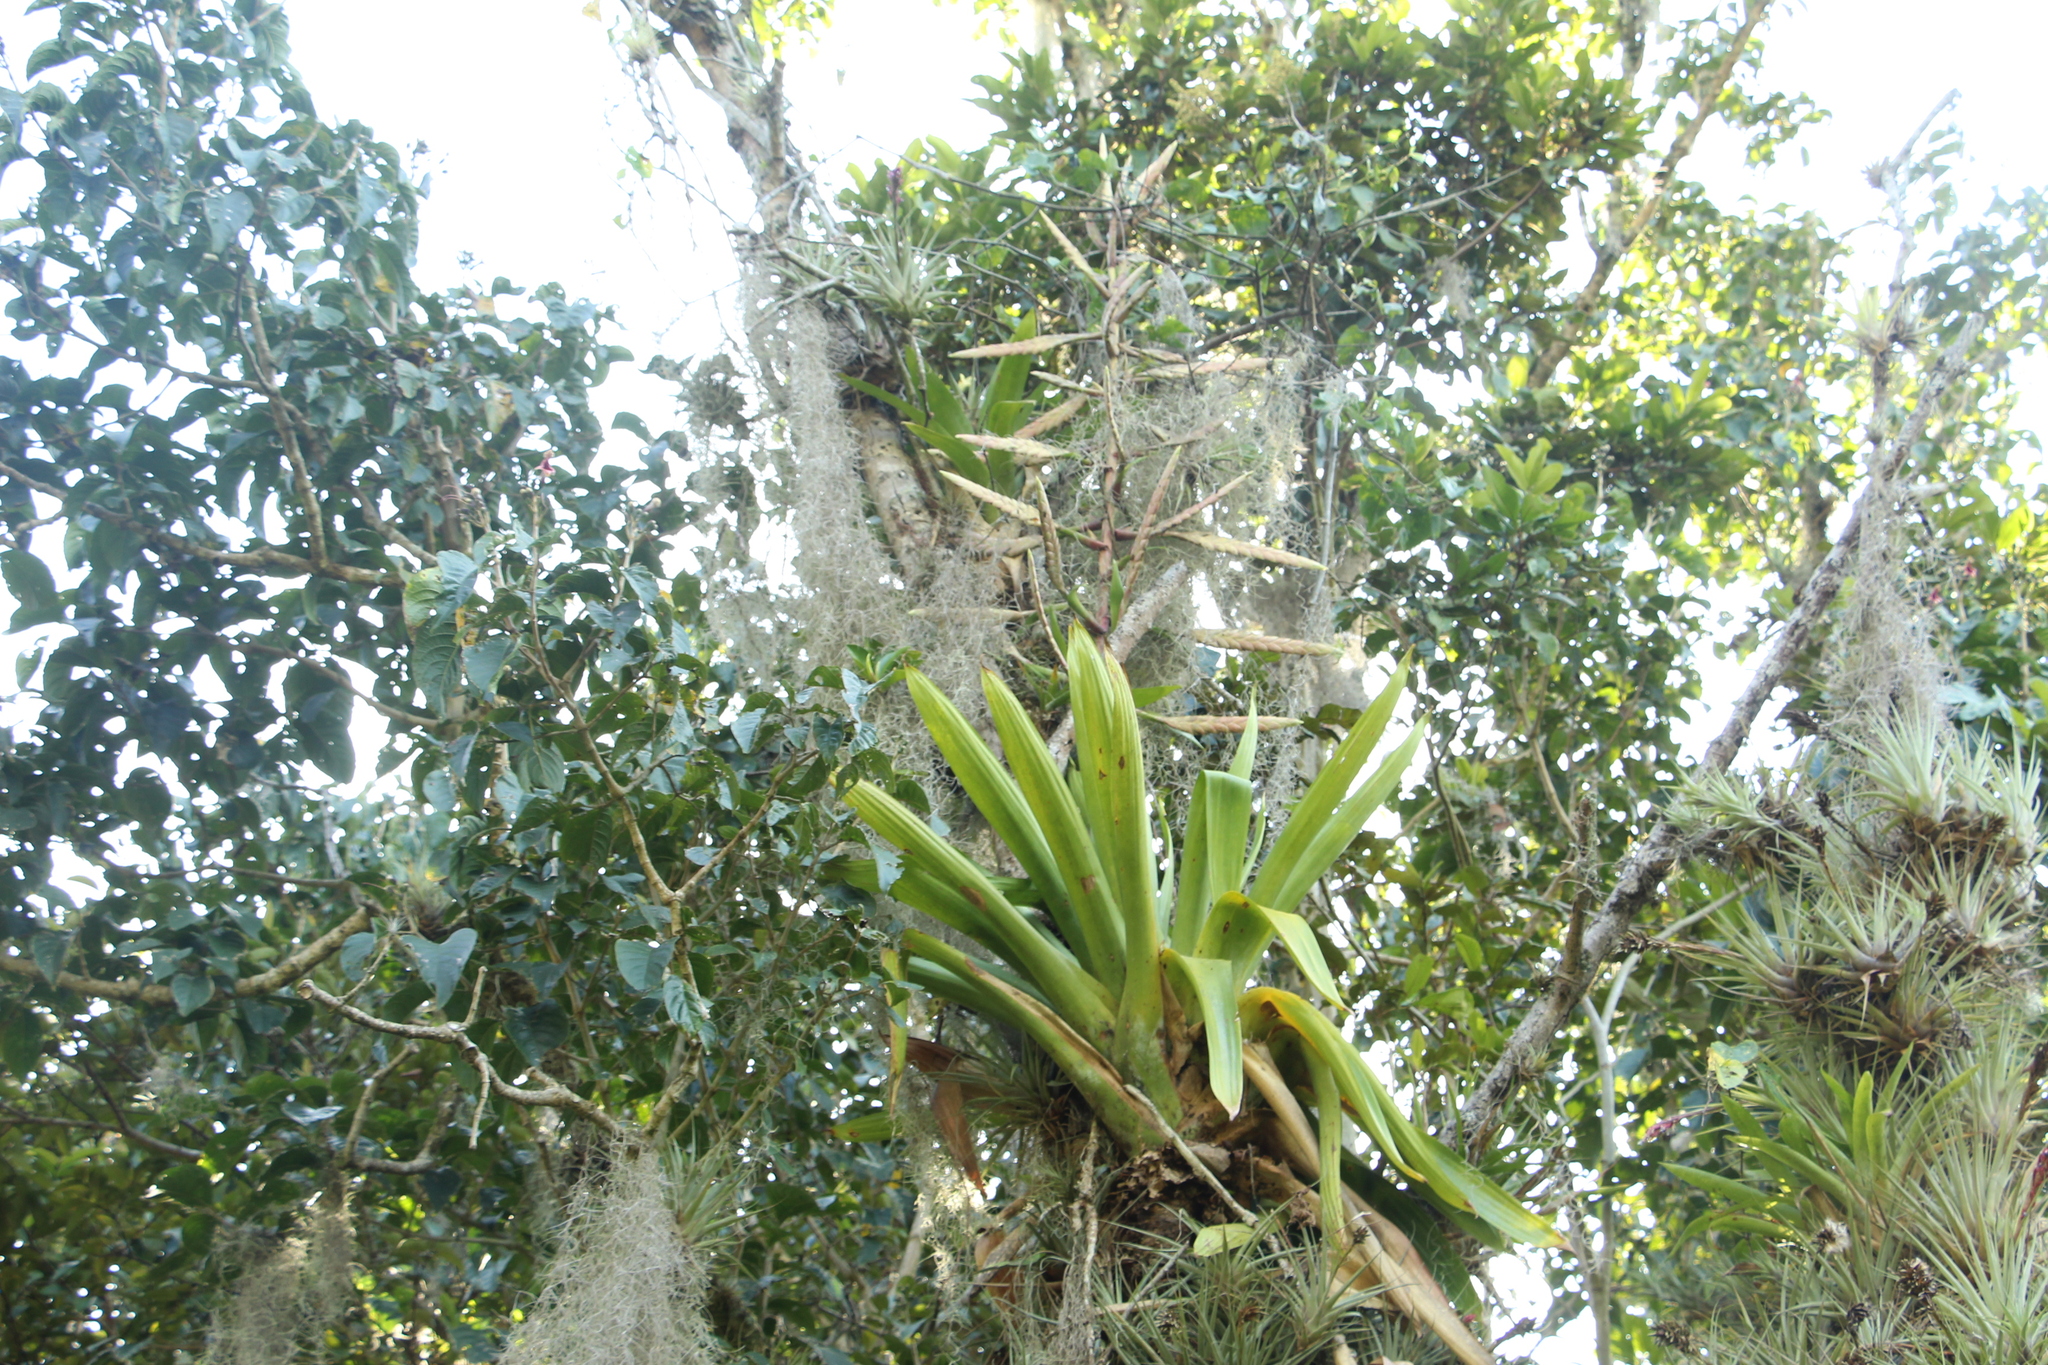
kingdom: Plantae
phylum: Tracheophyta
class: Liliopsida
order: Poales
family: Bromeliaceae
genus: Tillandsia
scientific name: Tillandsia fendleri
